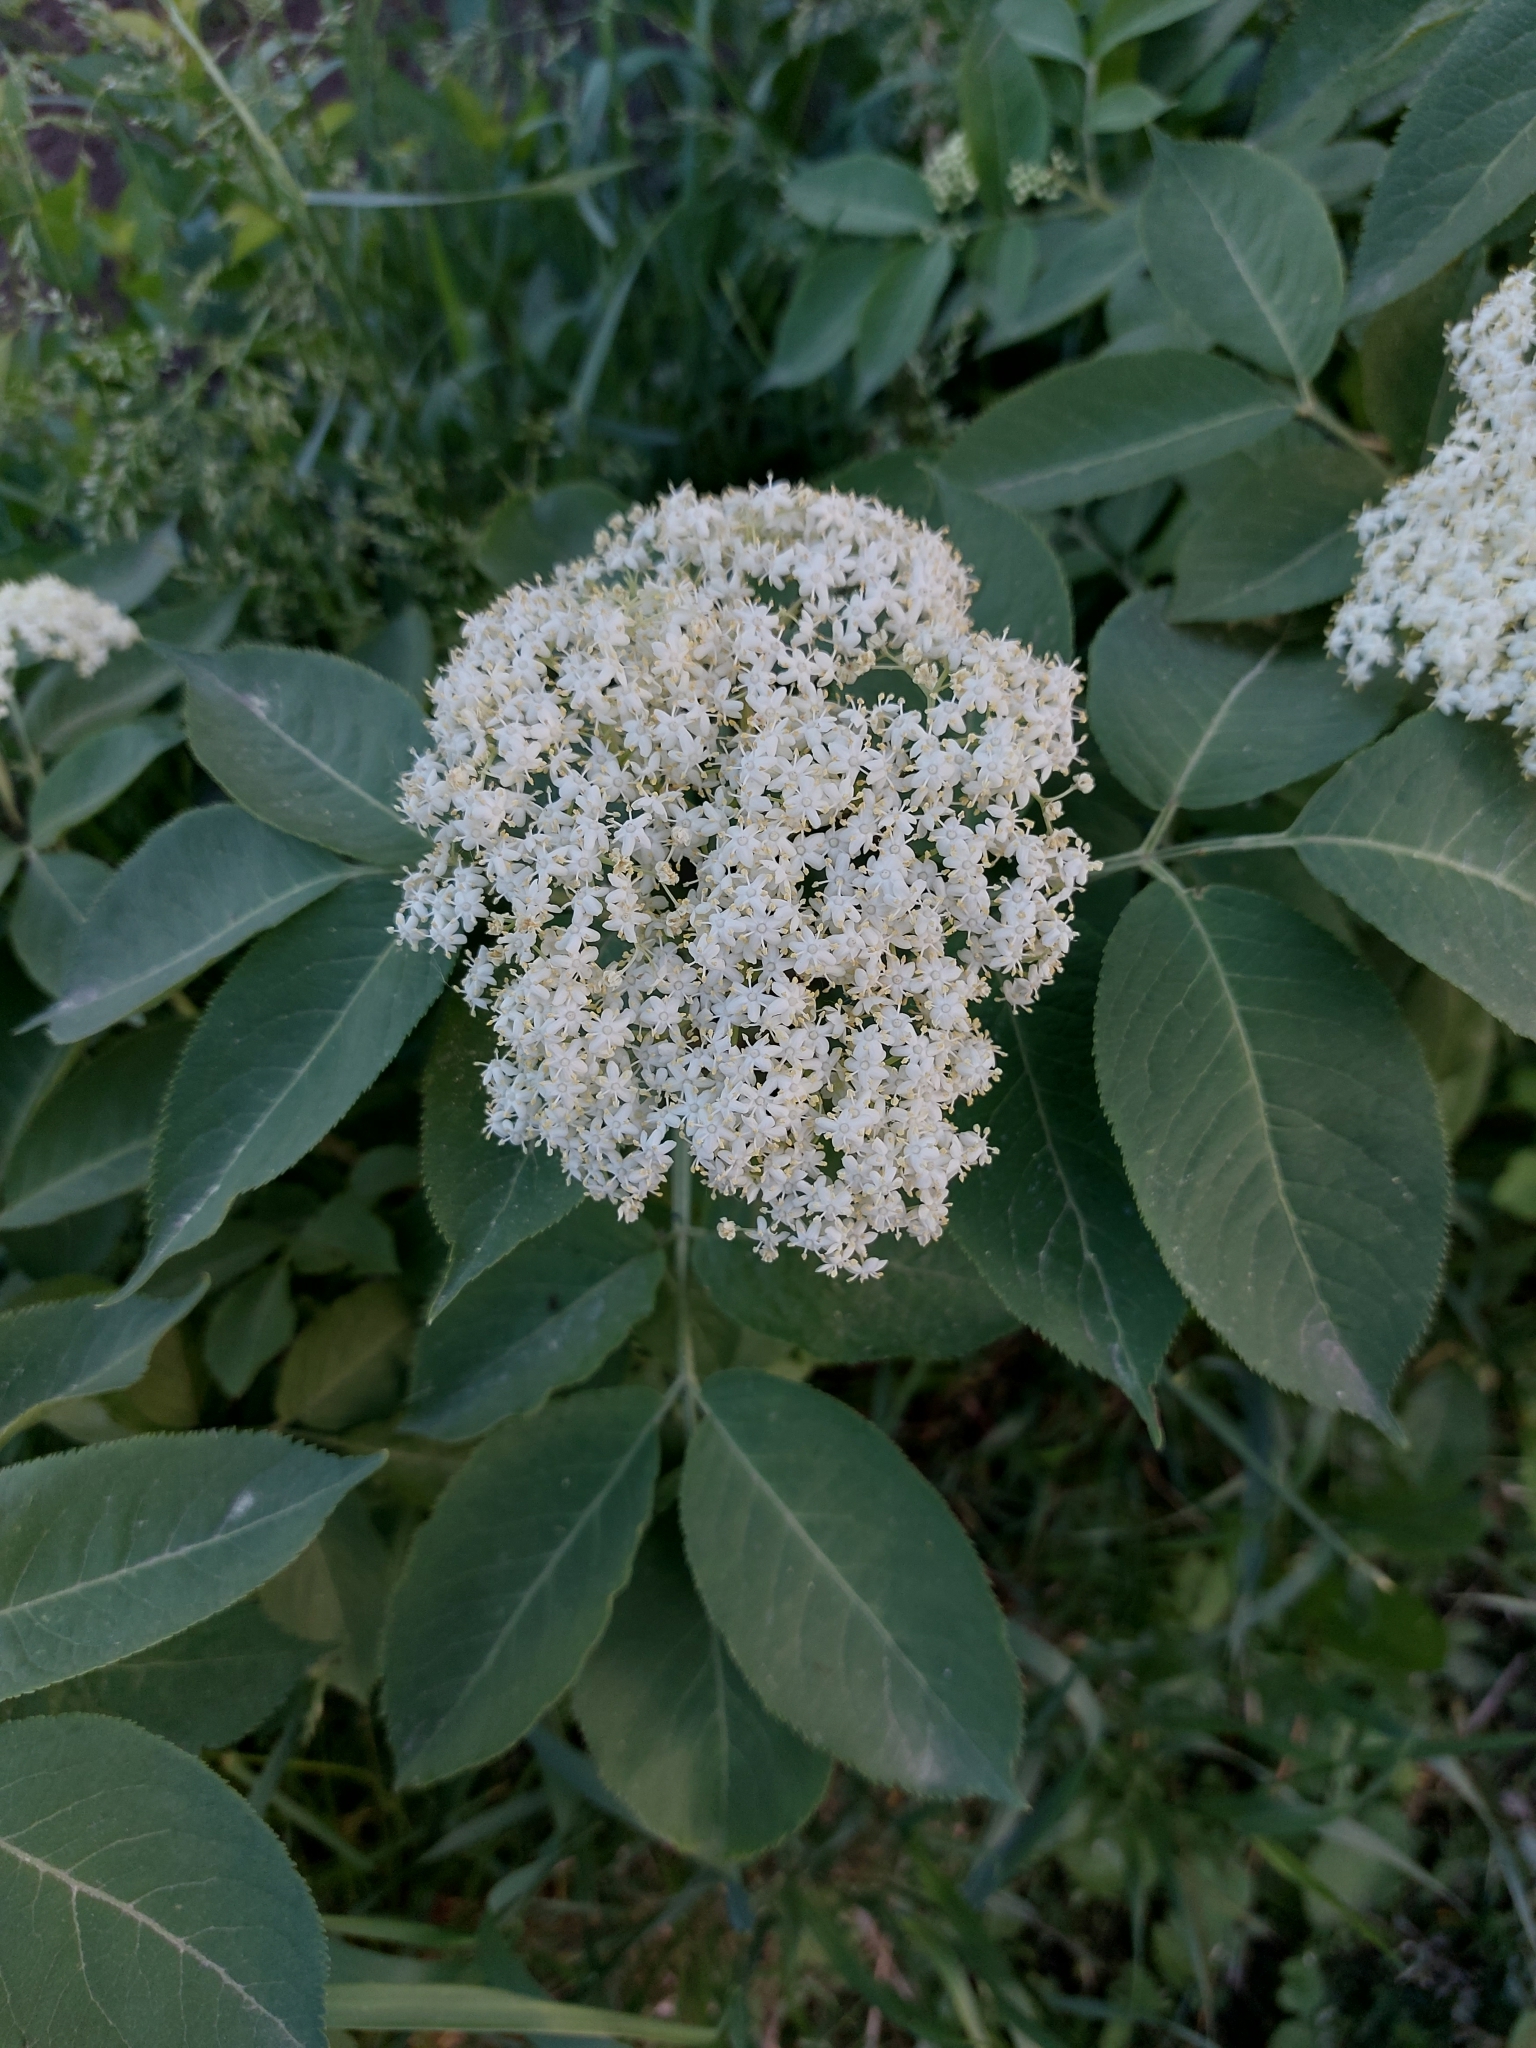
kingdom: Plantae
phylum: Tracheophyta
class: Magnoliopsida
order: Dipsacales
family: Viburnaceae
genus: Sambucus
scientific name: Sambucus nigra
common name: Elder
